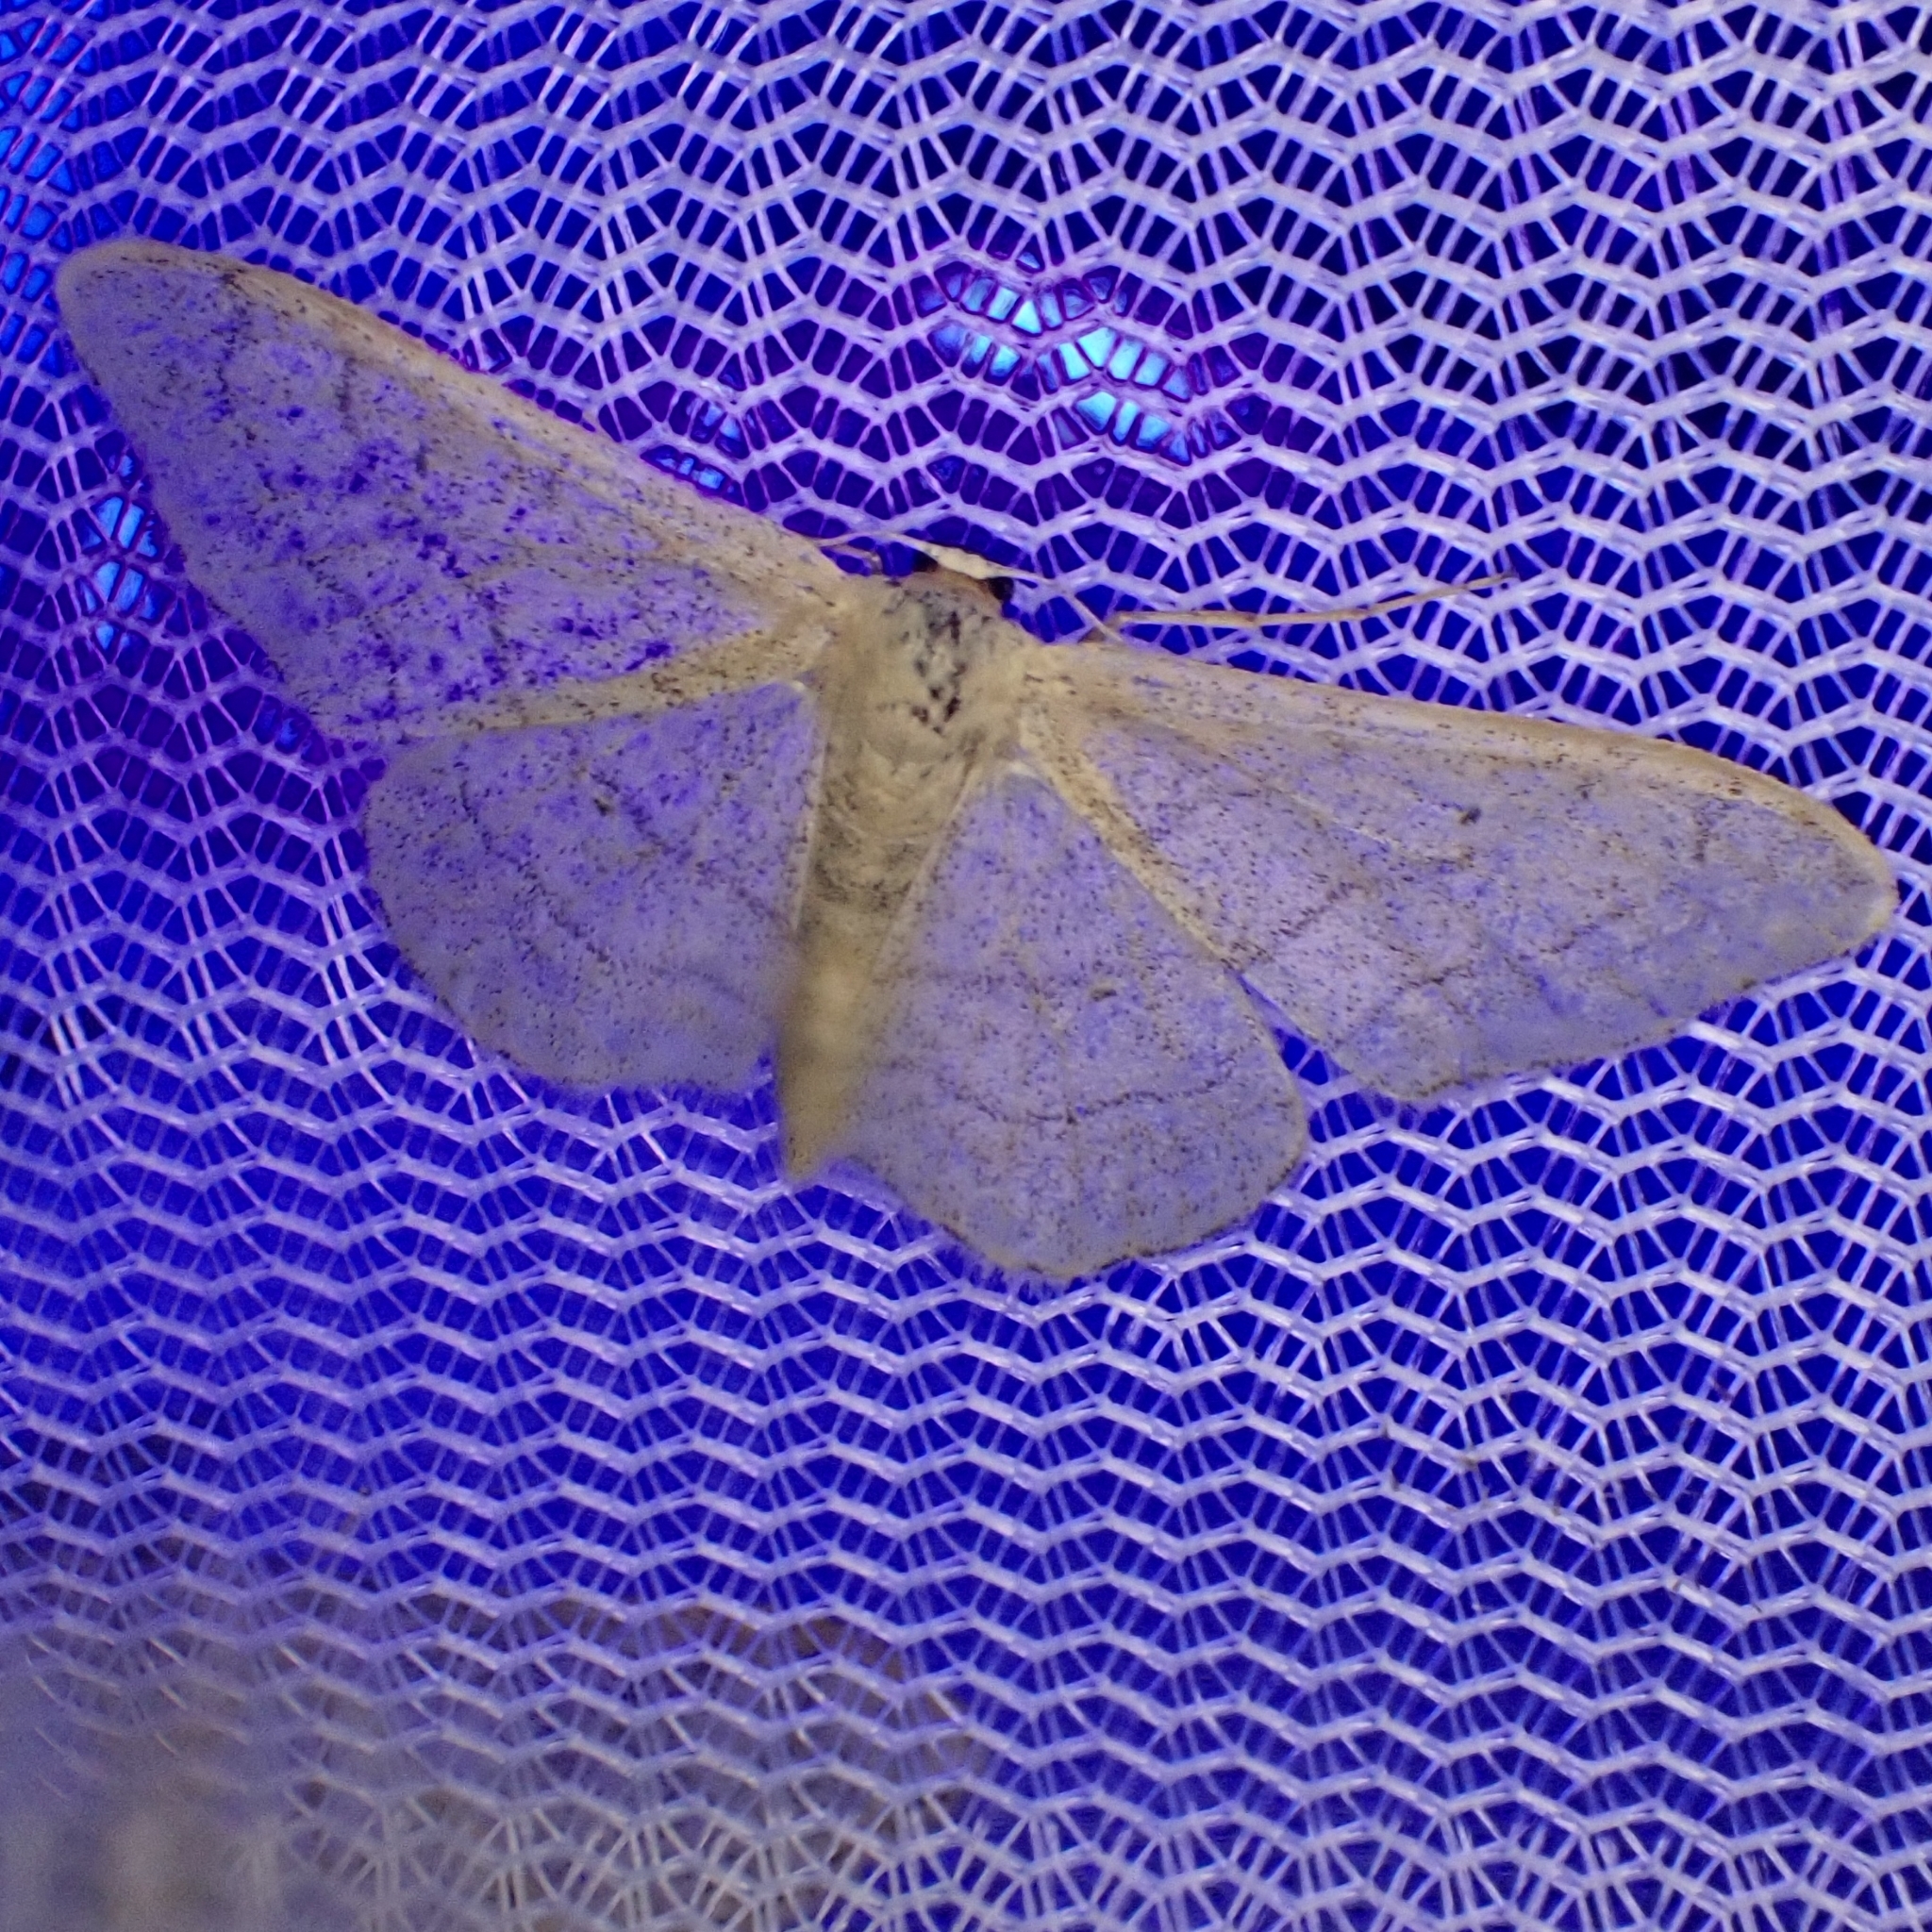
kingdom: Animalia
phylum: Arthropoda
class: Insecta
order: Lepidoptera
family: Geometridae
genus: Idaea
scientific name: Idaea aversata
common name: Riband wave
